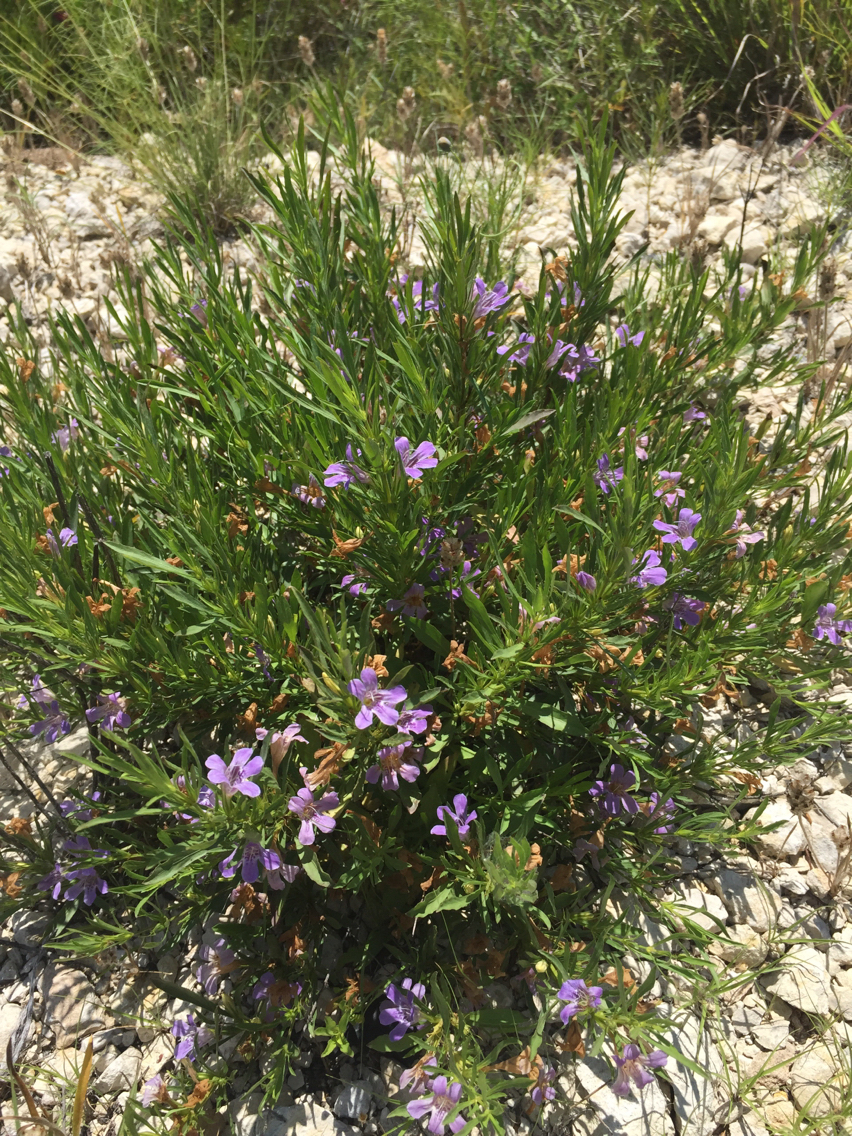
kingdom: Plantae
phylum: Tracheophyta
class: Magnoliopsida
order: Lamiales
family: Acanthaceae
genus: Dyschoriste
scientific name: Dyschoriste linearis
